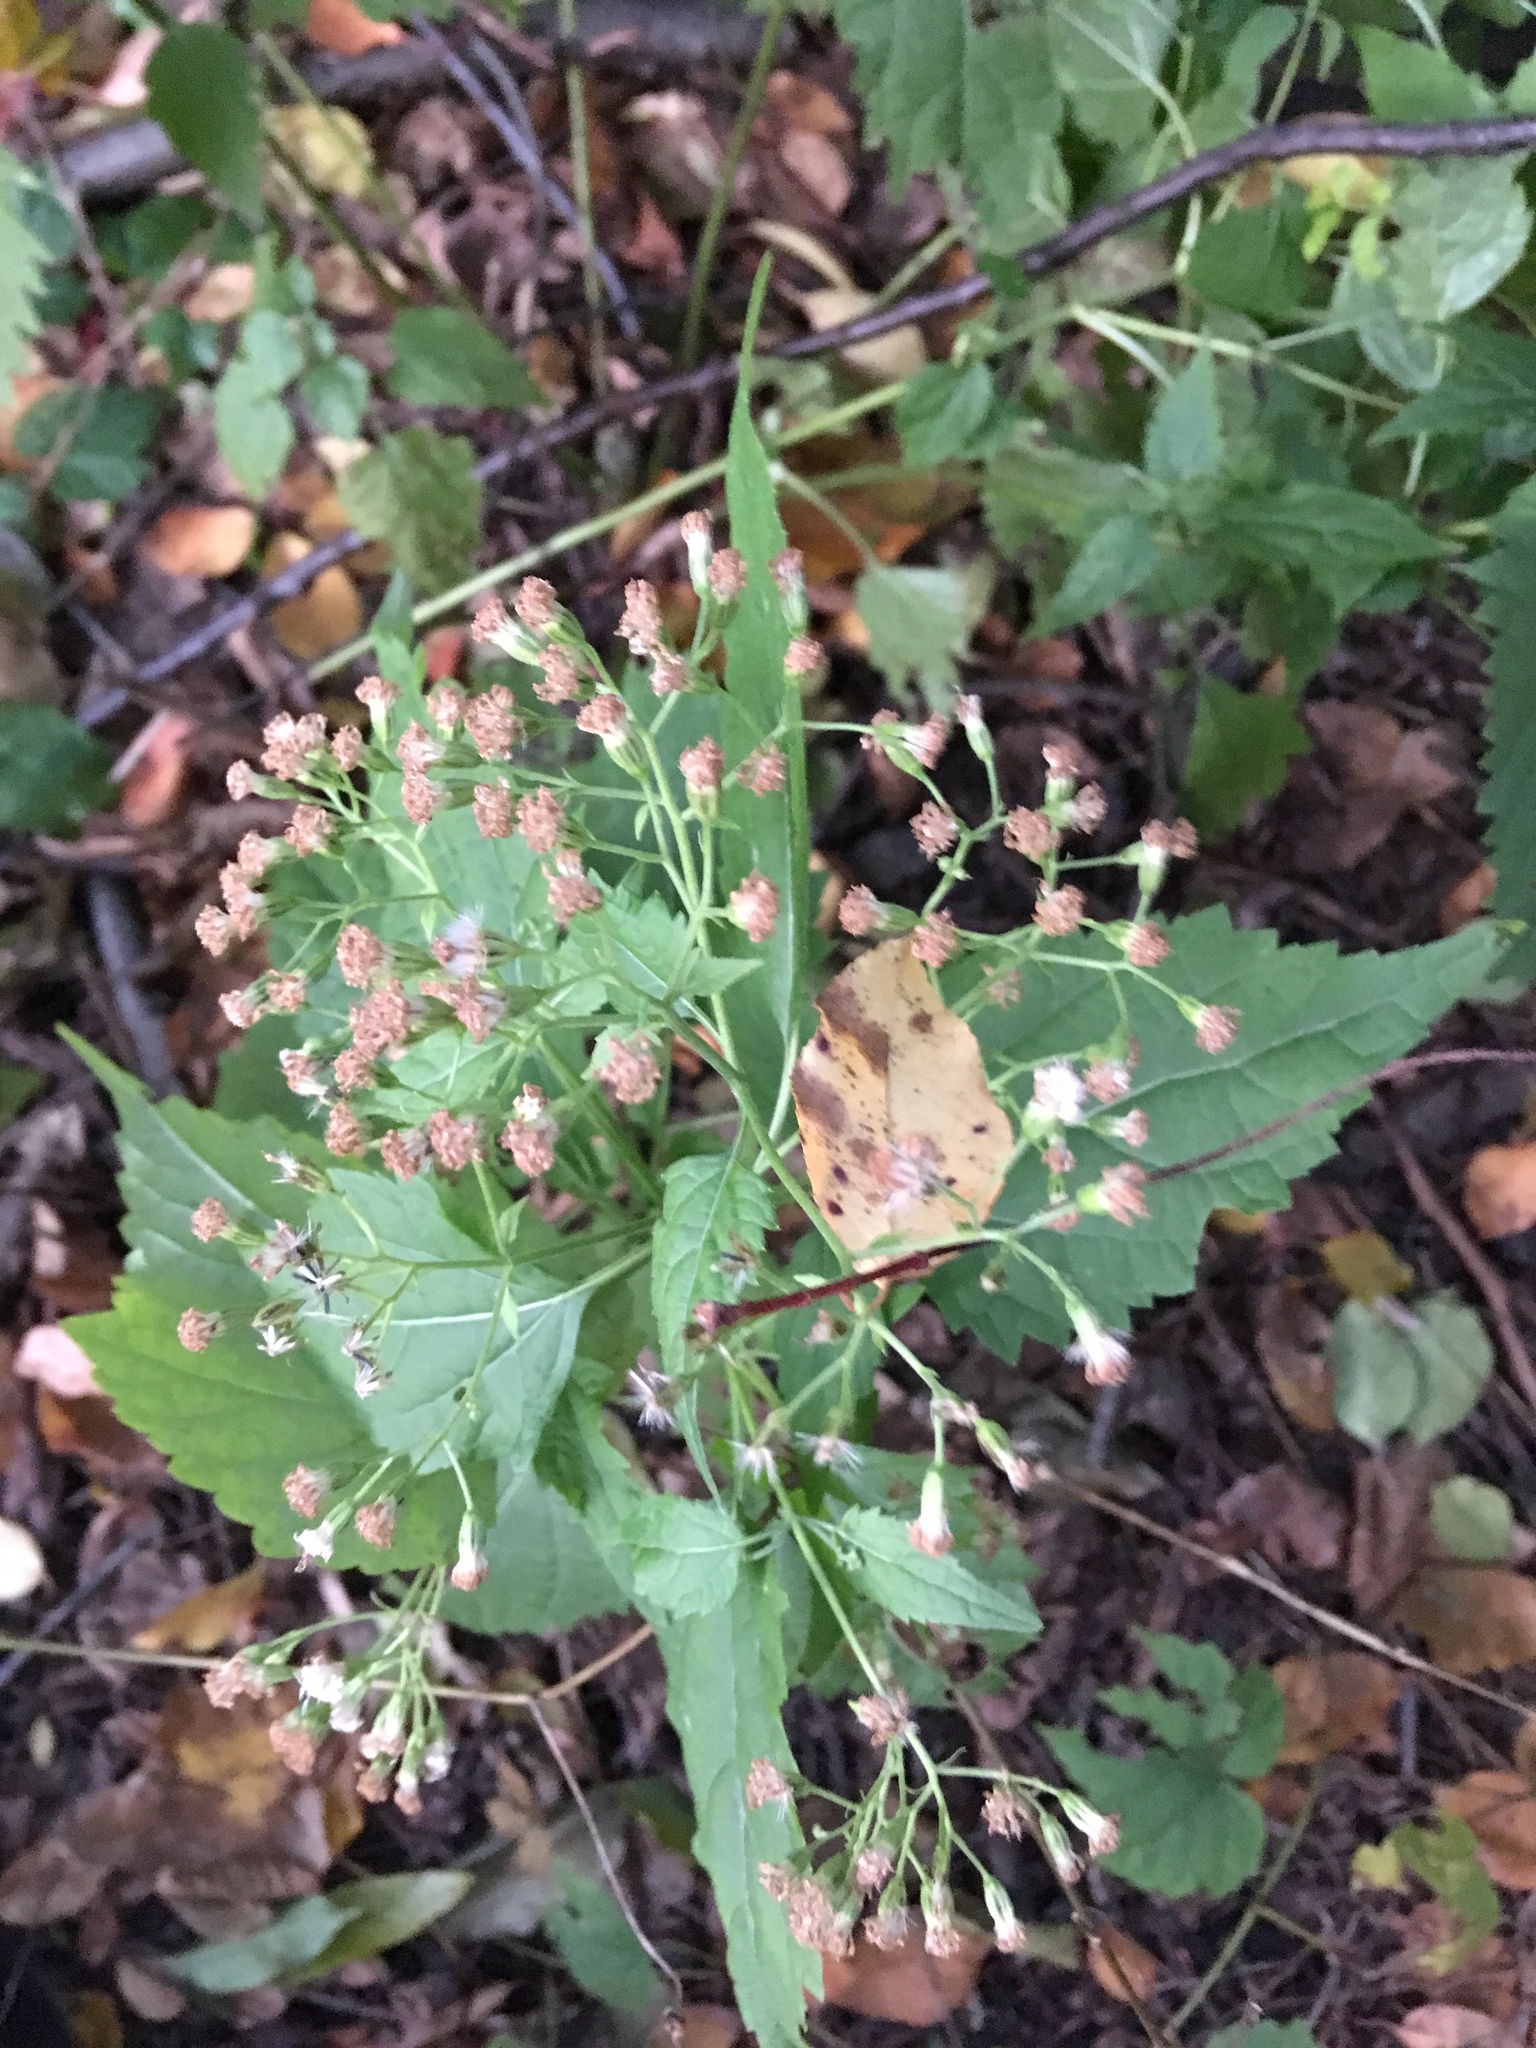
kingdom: Plantae
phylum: Tracheophyta
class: Magnoliopsida
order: Asterales
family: Asteraceae
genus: Ageratina
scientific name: Ageratina altissima
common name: White snakeroot
